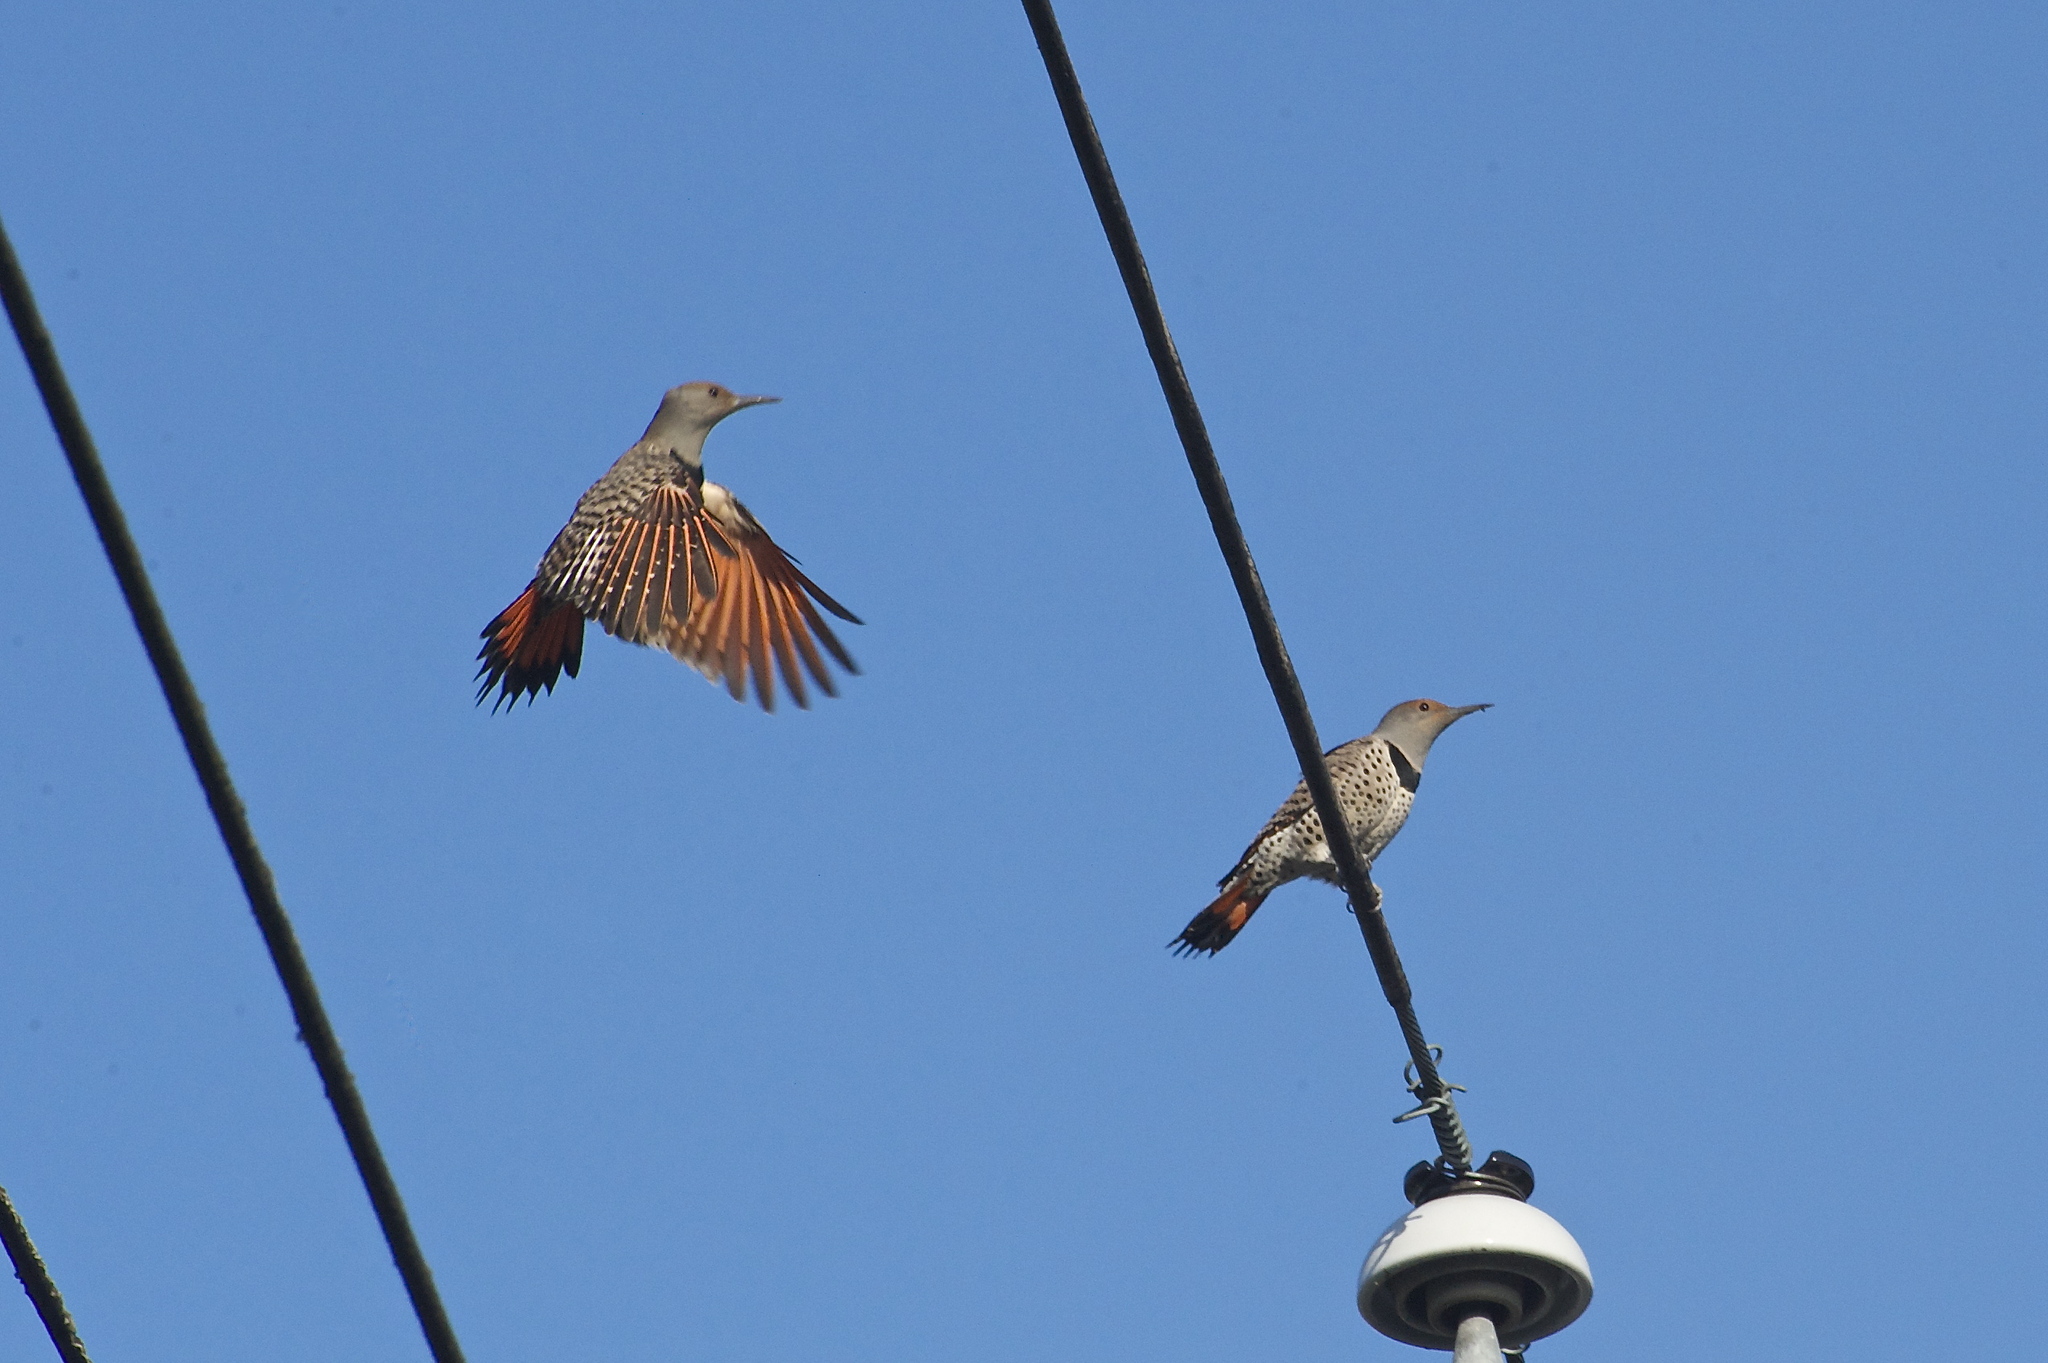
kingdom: Animalia
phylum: Chordata
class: Aves
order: Piciformes
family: Picidae
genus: Colaptes
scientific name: Colaptes auratus
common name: Northern flicker
